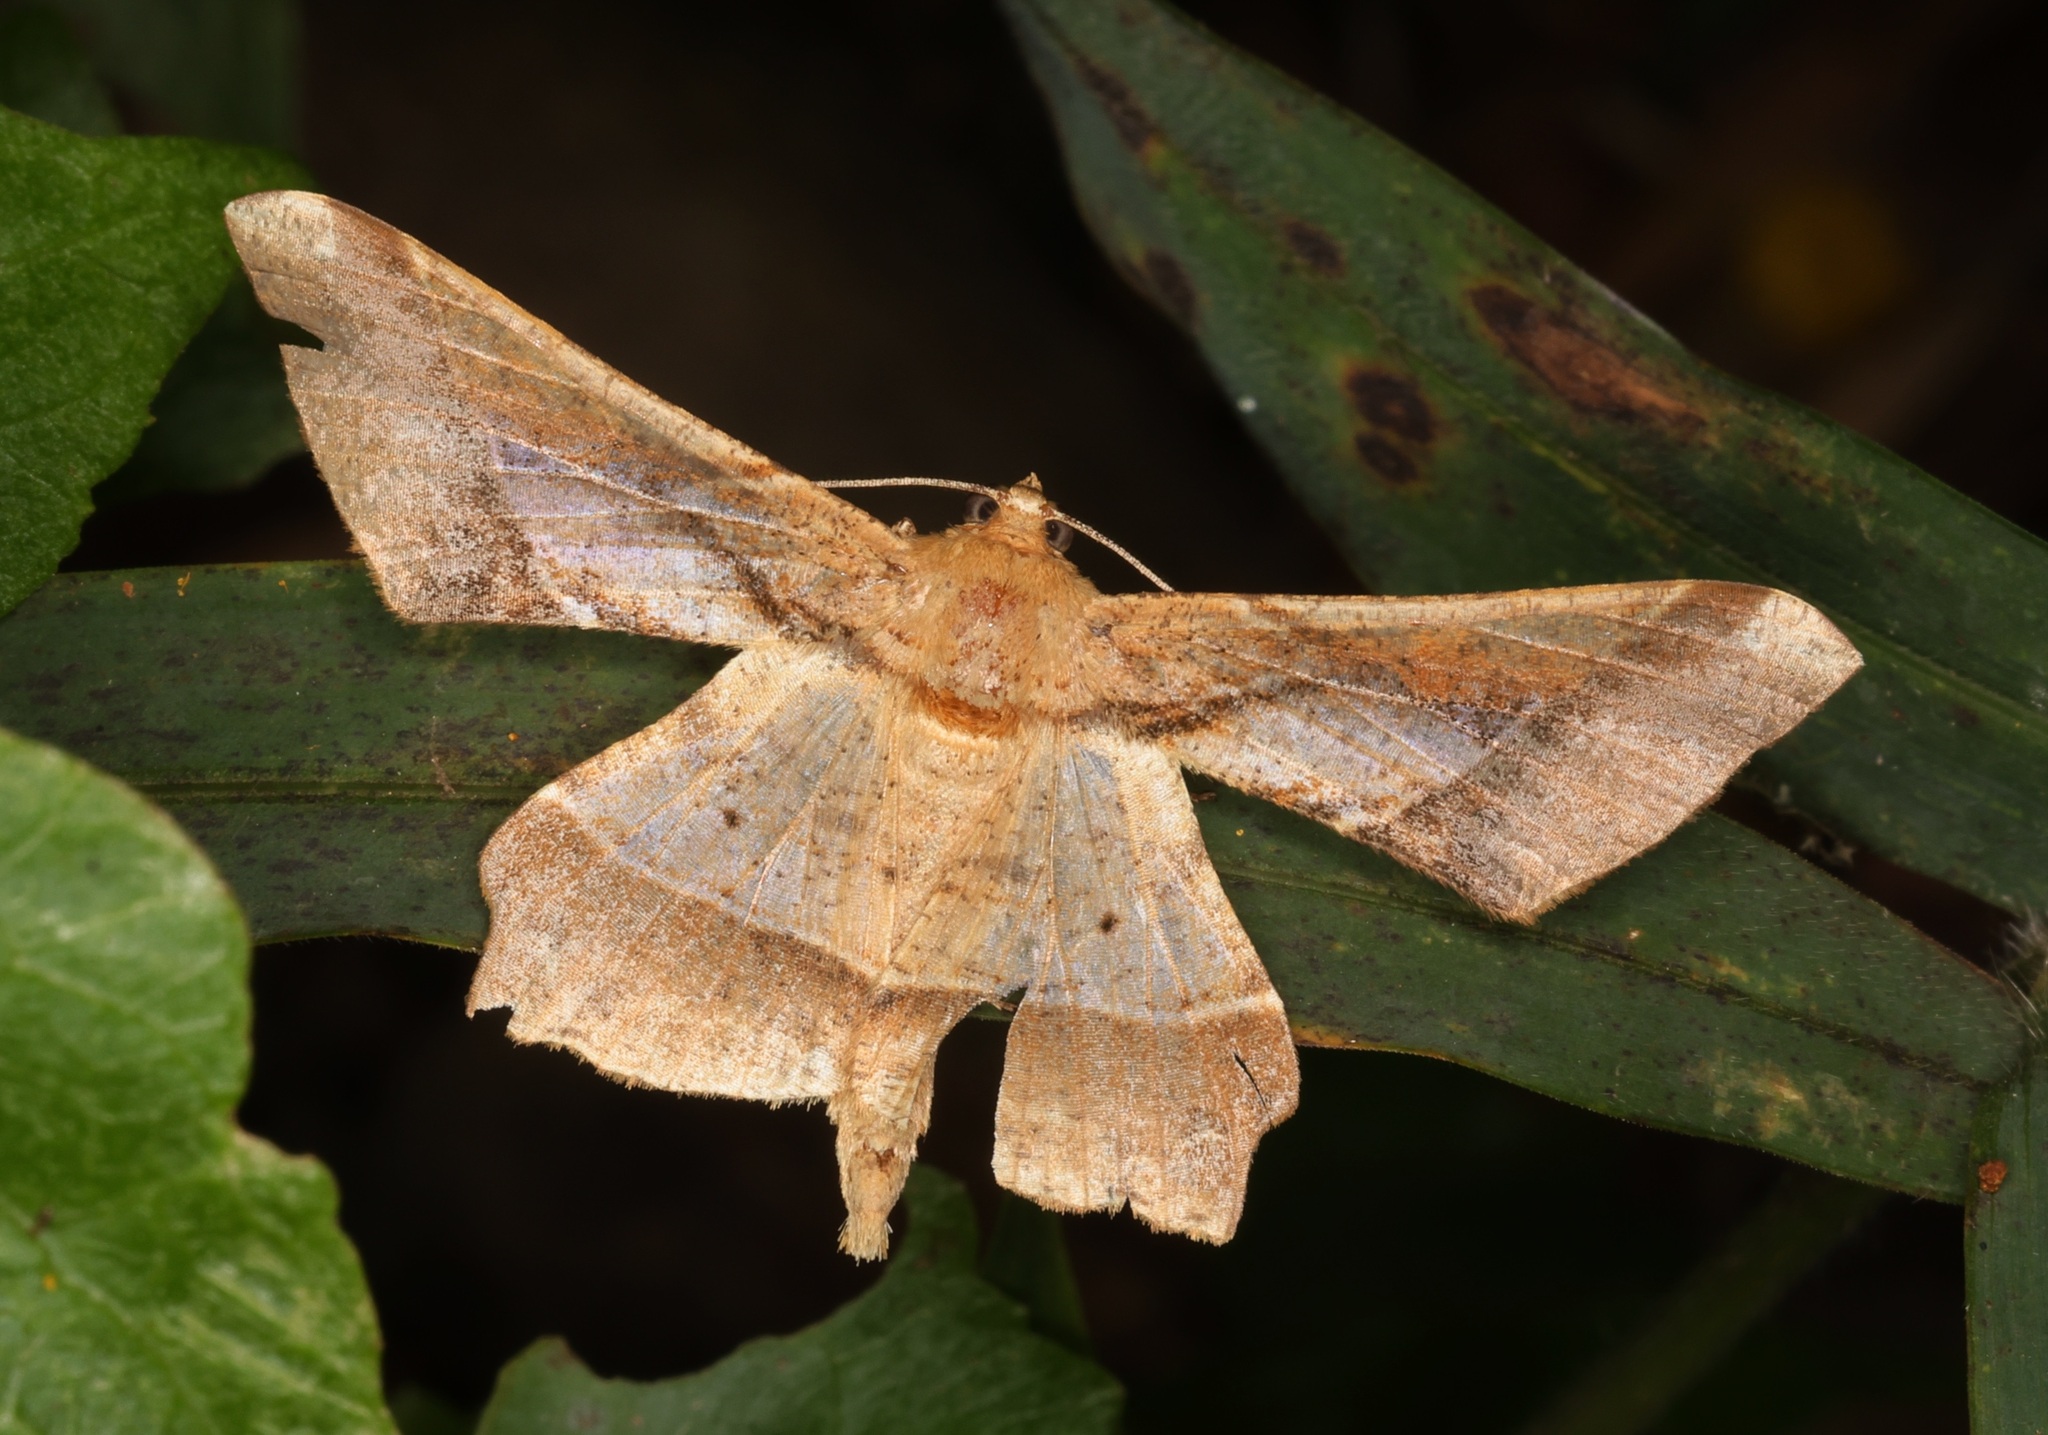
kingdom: Animalia
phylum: Arthropoda
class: Insecta
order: Lepidoptera
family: Geometridae
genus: Krananda
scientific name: Krananda latimarginaria
